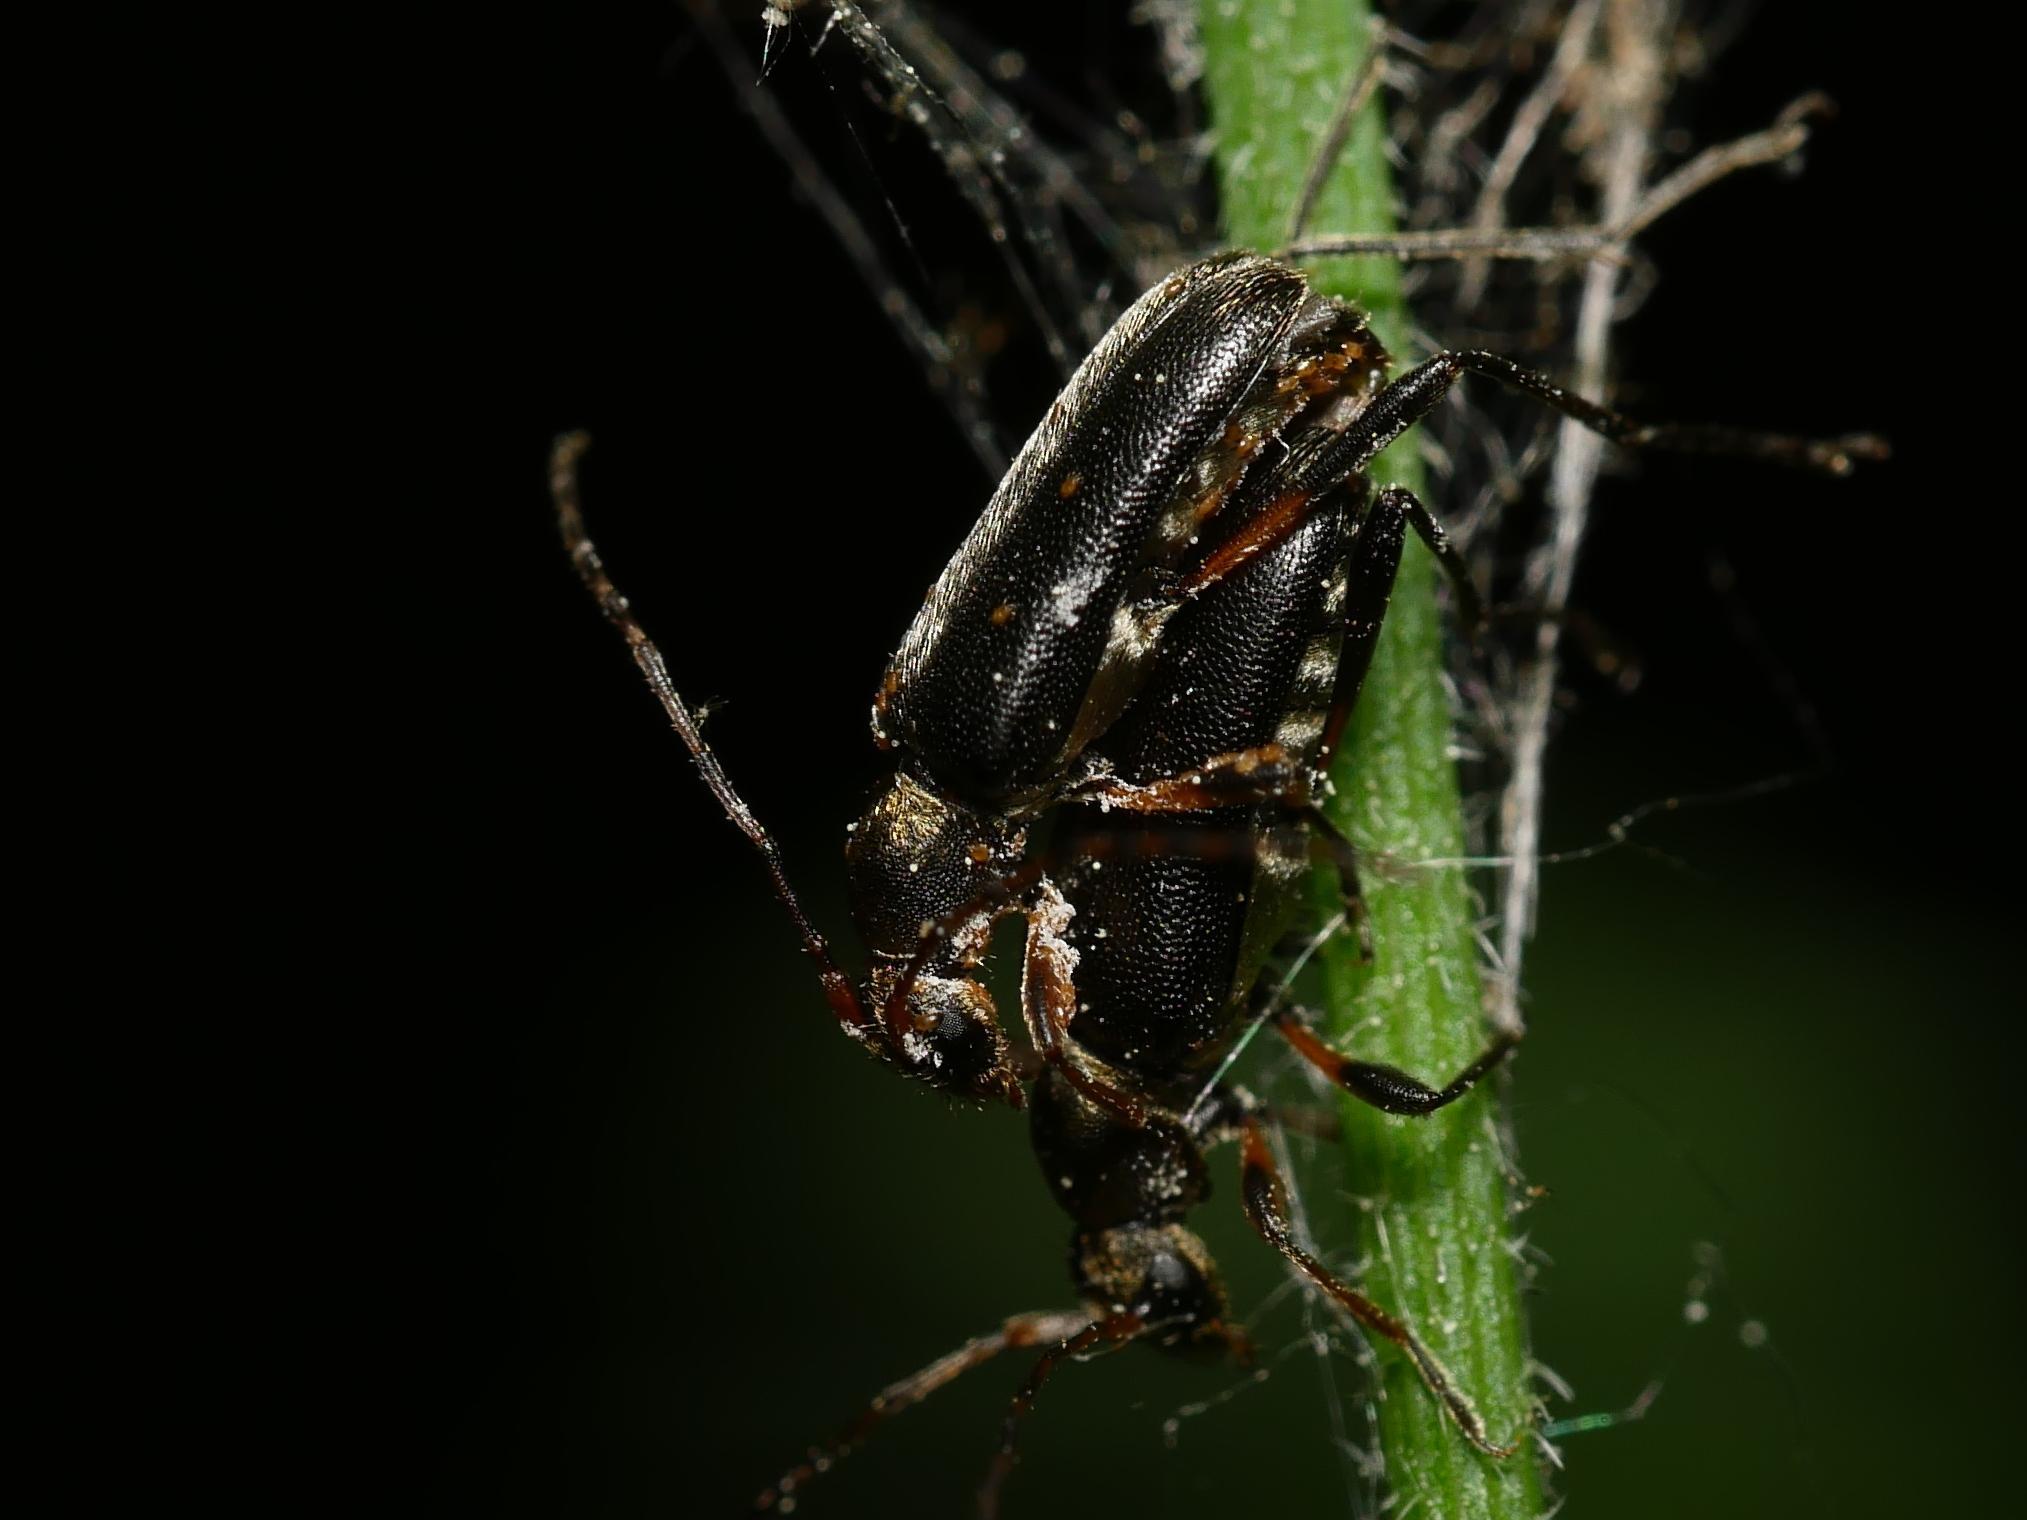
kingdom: Animalia
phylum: Arthropoda
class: Insecta
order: Coleoptera
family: Cerambycidae
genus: Grammoptera
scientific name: Grammoptera abdominalis
